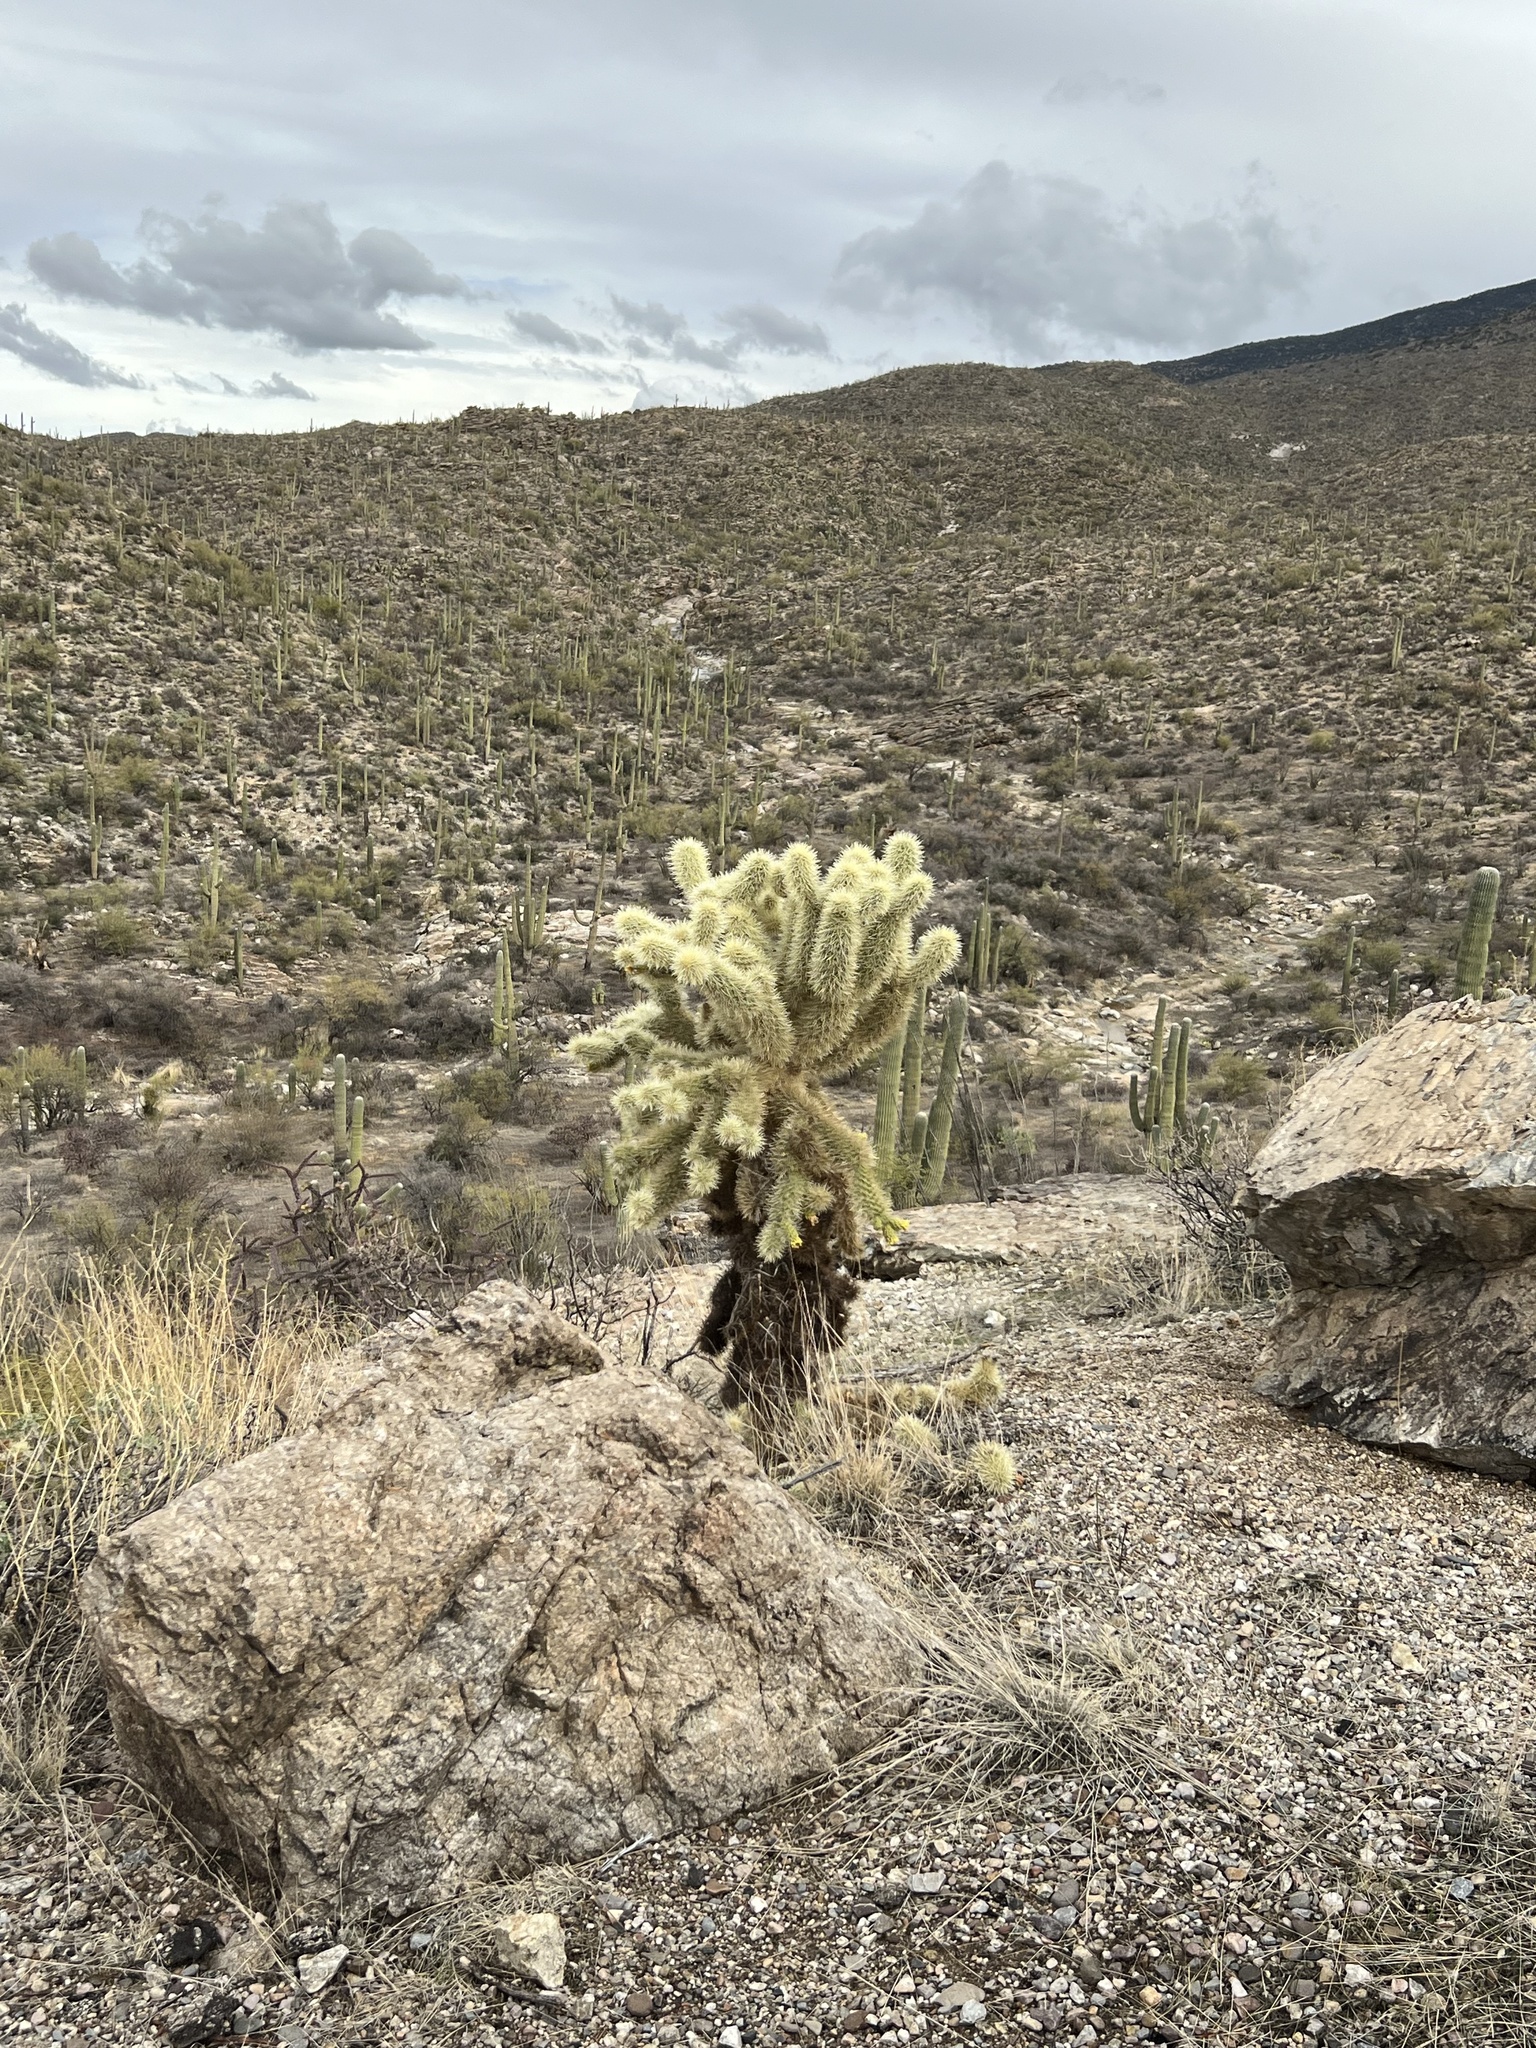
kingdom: Plantae
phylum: Tracheophyta
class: Magnoliopsida
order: Caryophyllales
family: Cactaceae
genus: Cylindropuntia
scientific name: Cylindropuntia fosbergii
